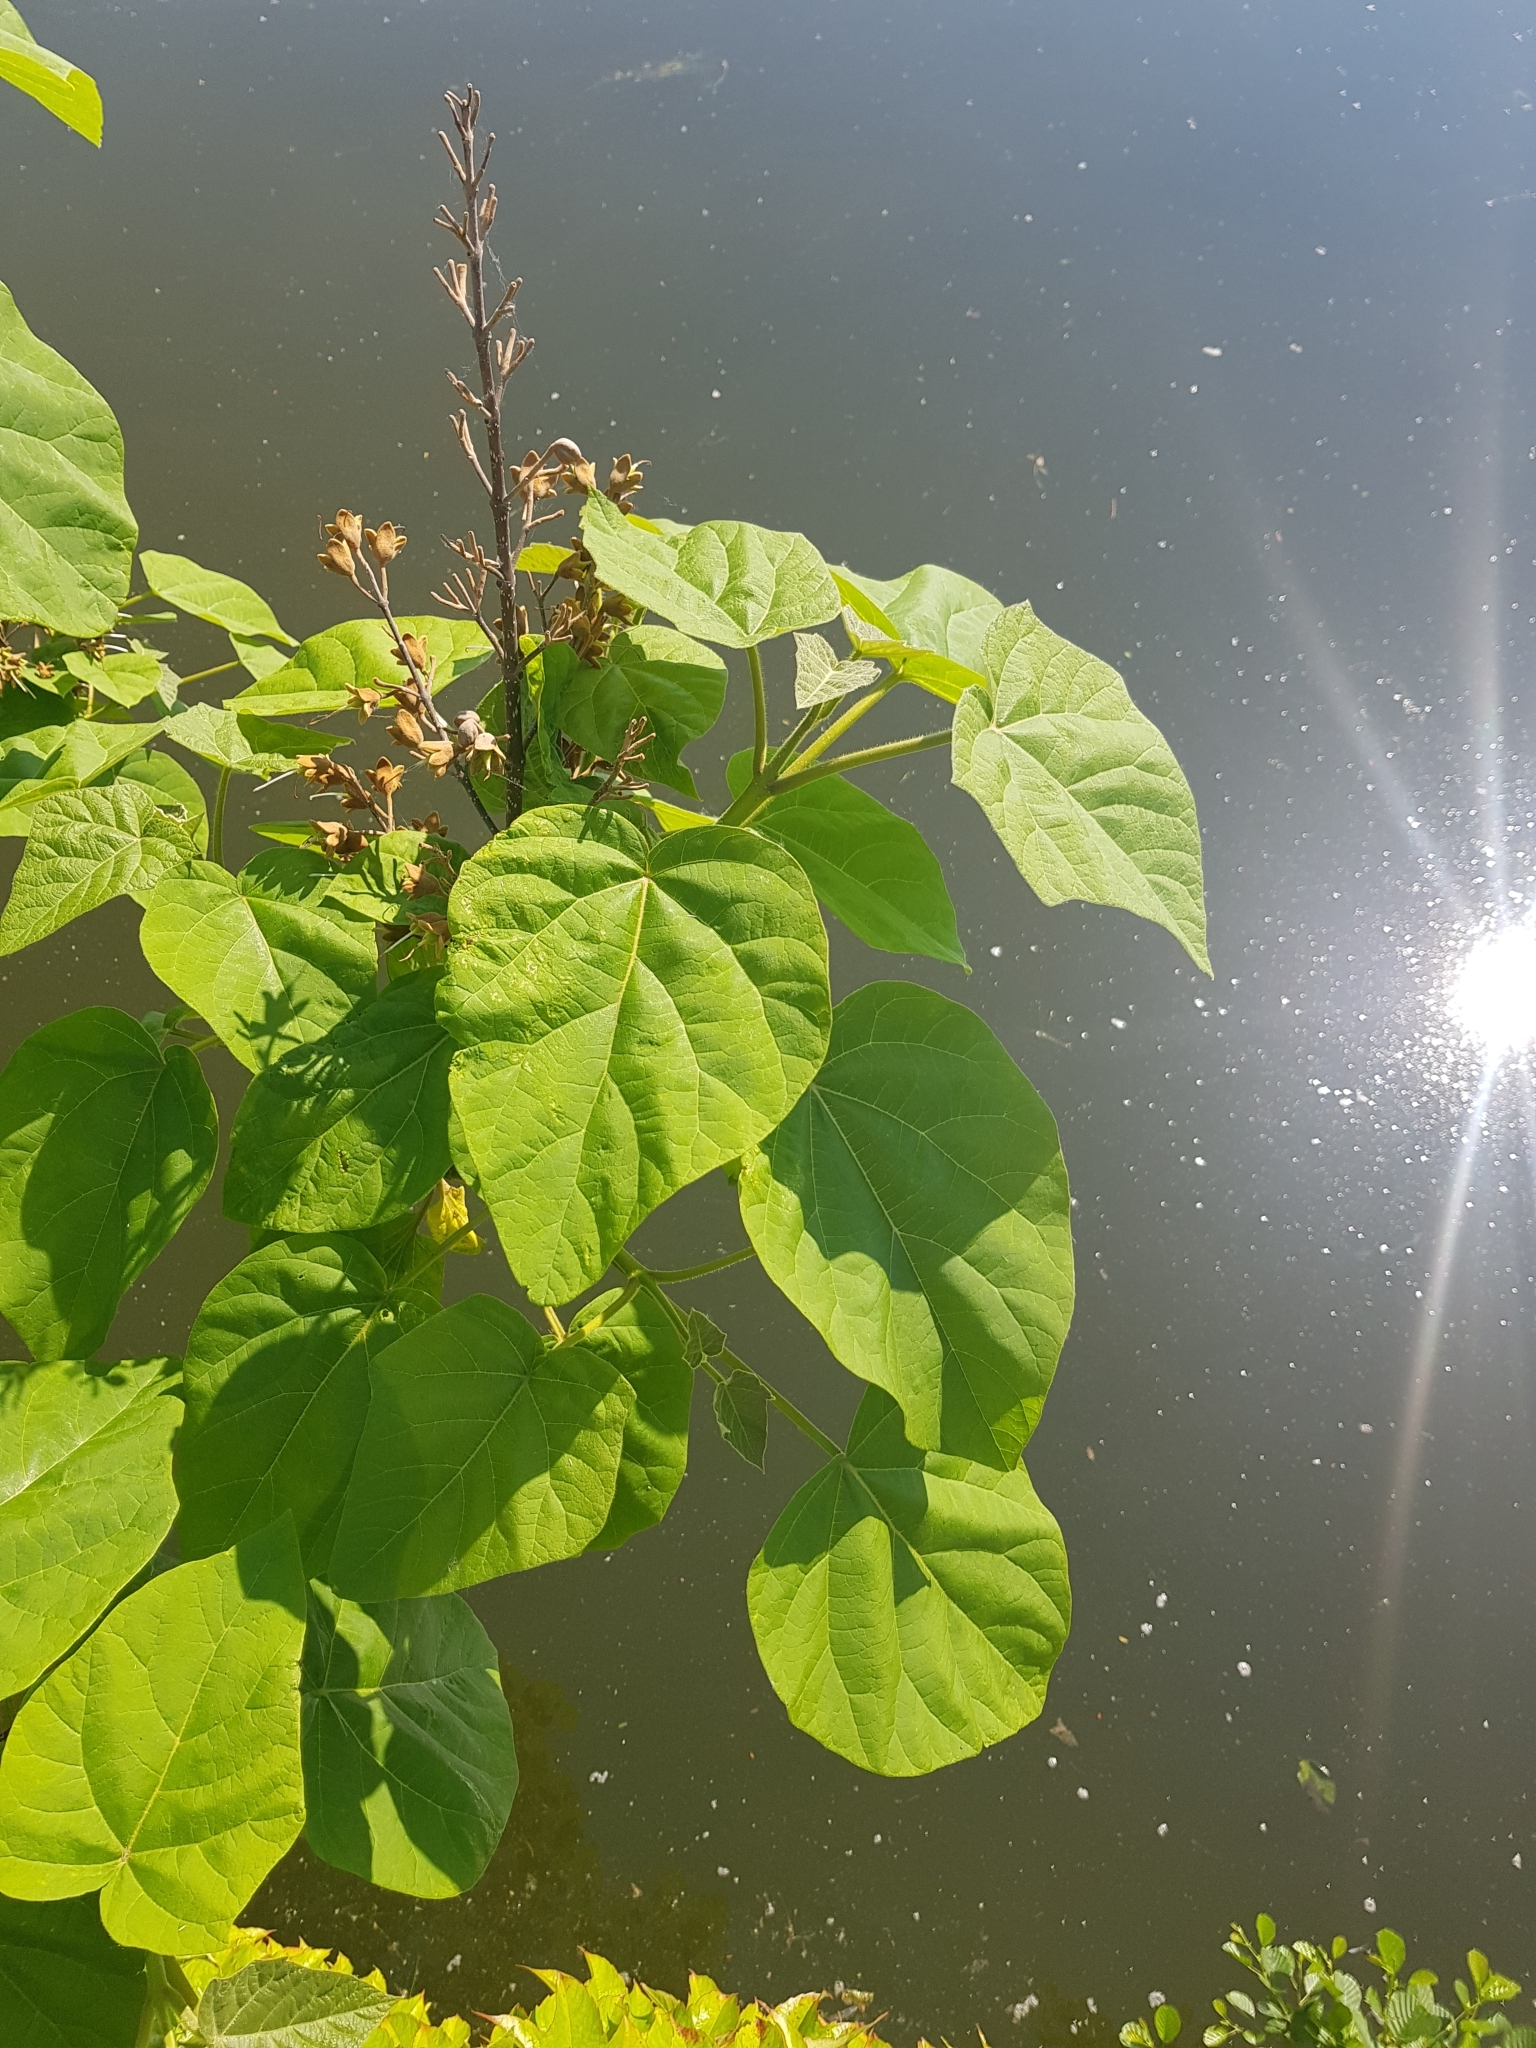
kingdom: Plantae
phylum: Tracheophyta
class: Magnoliopsida
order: Lamiales
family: Paulowniaceae
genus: Paulownia
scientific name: Paulownia tomentosa
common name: Foxglove-tree
